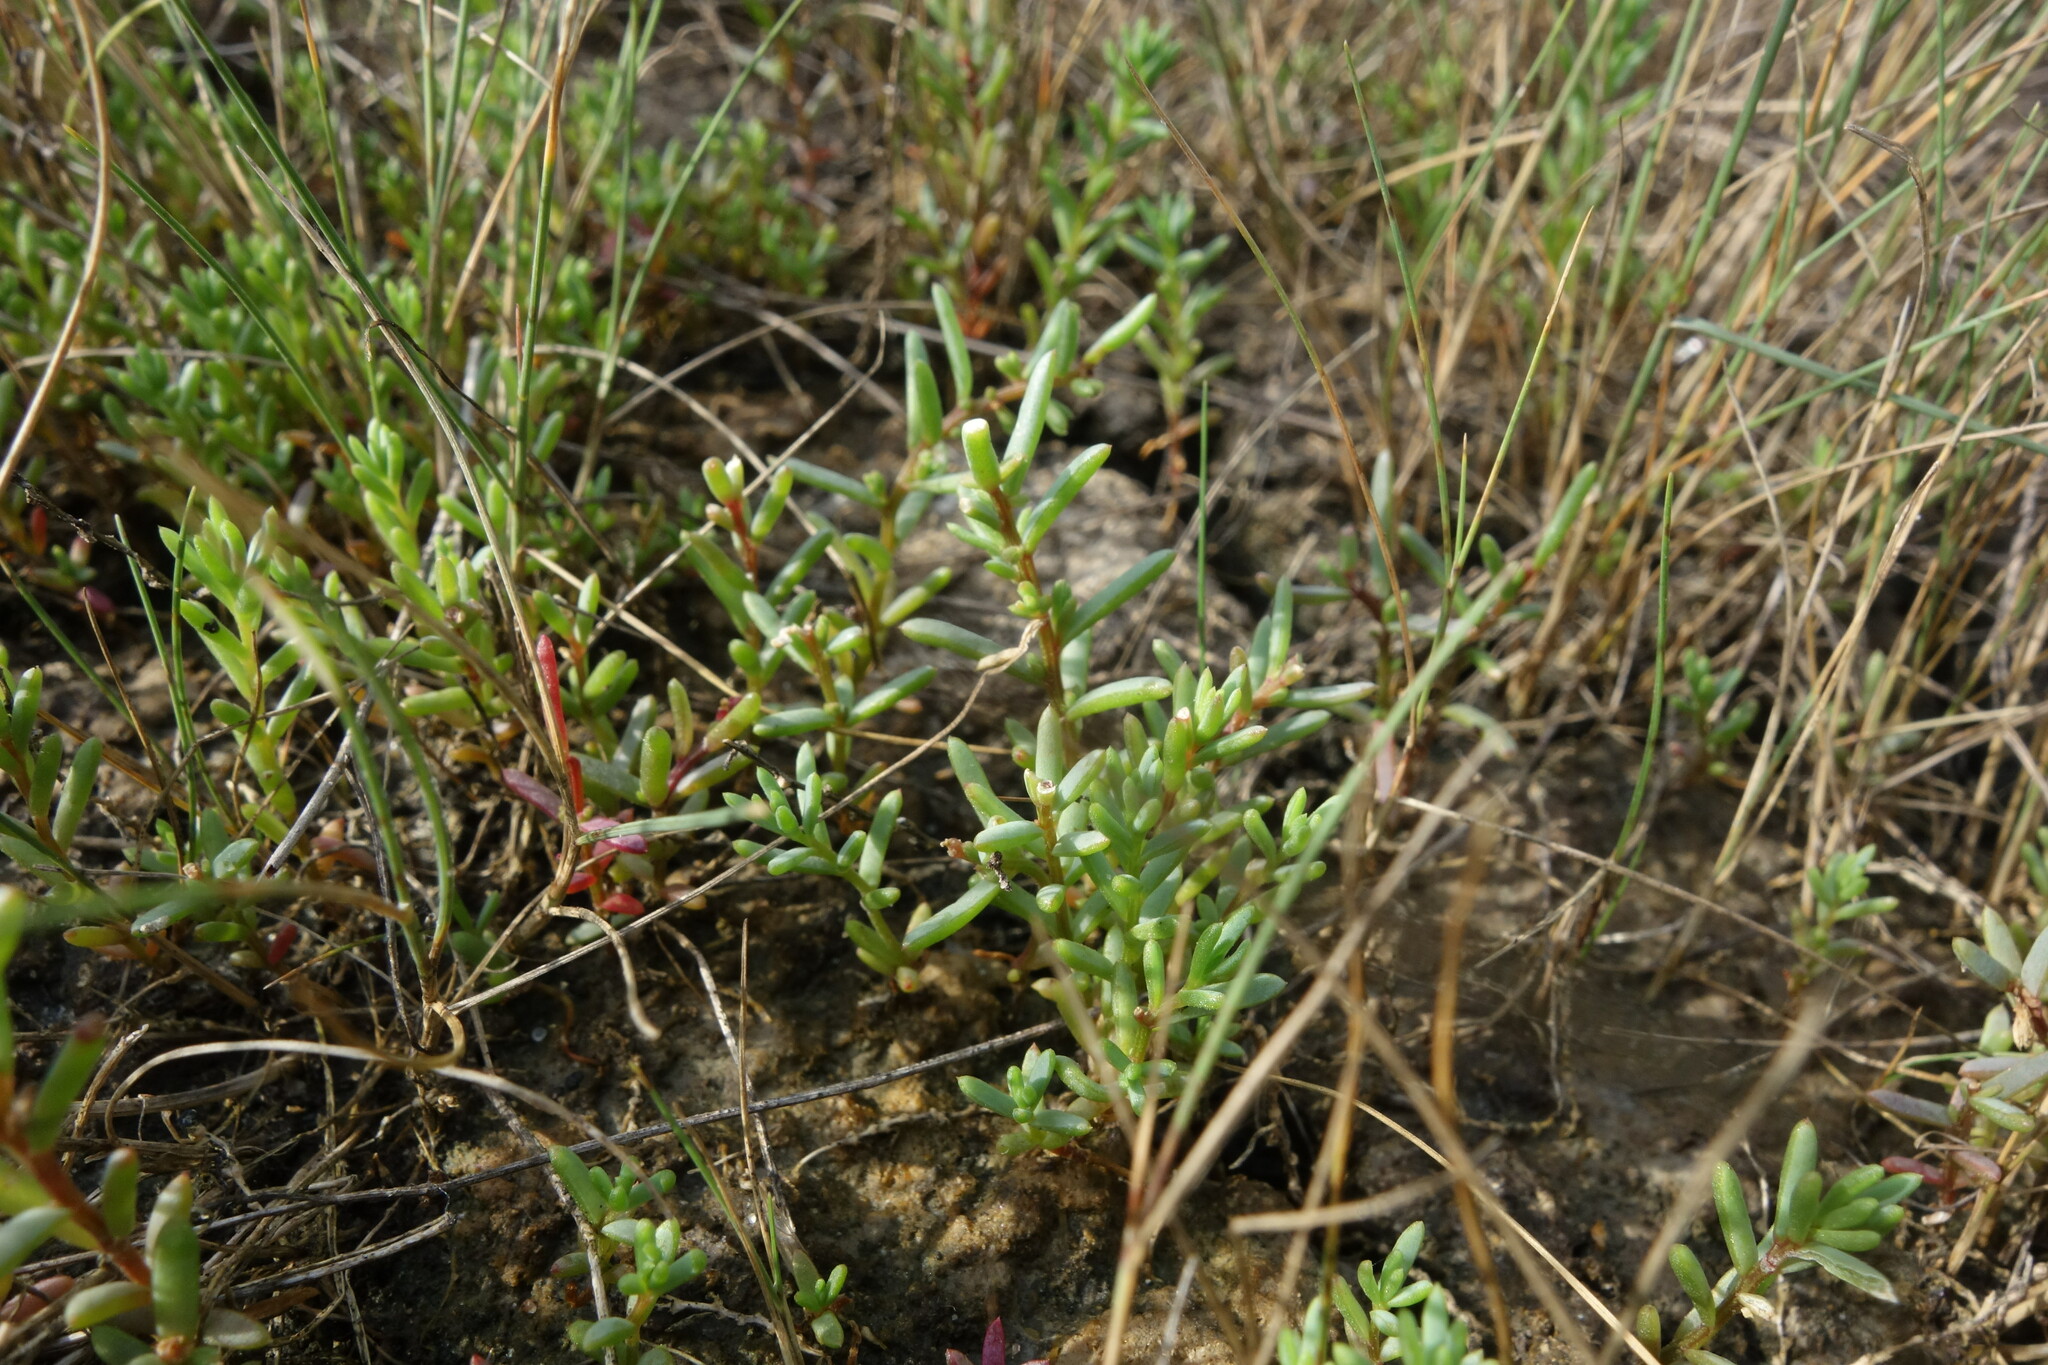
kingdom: Plantae
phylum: Tracheophyta
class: Magnoliopsida
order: Caryophyllales
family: Amaranthaceae
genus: Suaeda
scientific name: Suaeda prostrata
